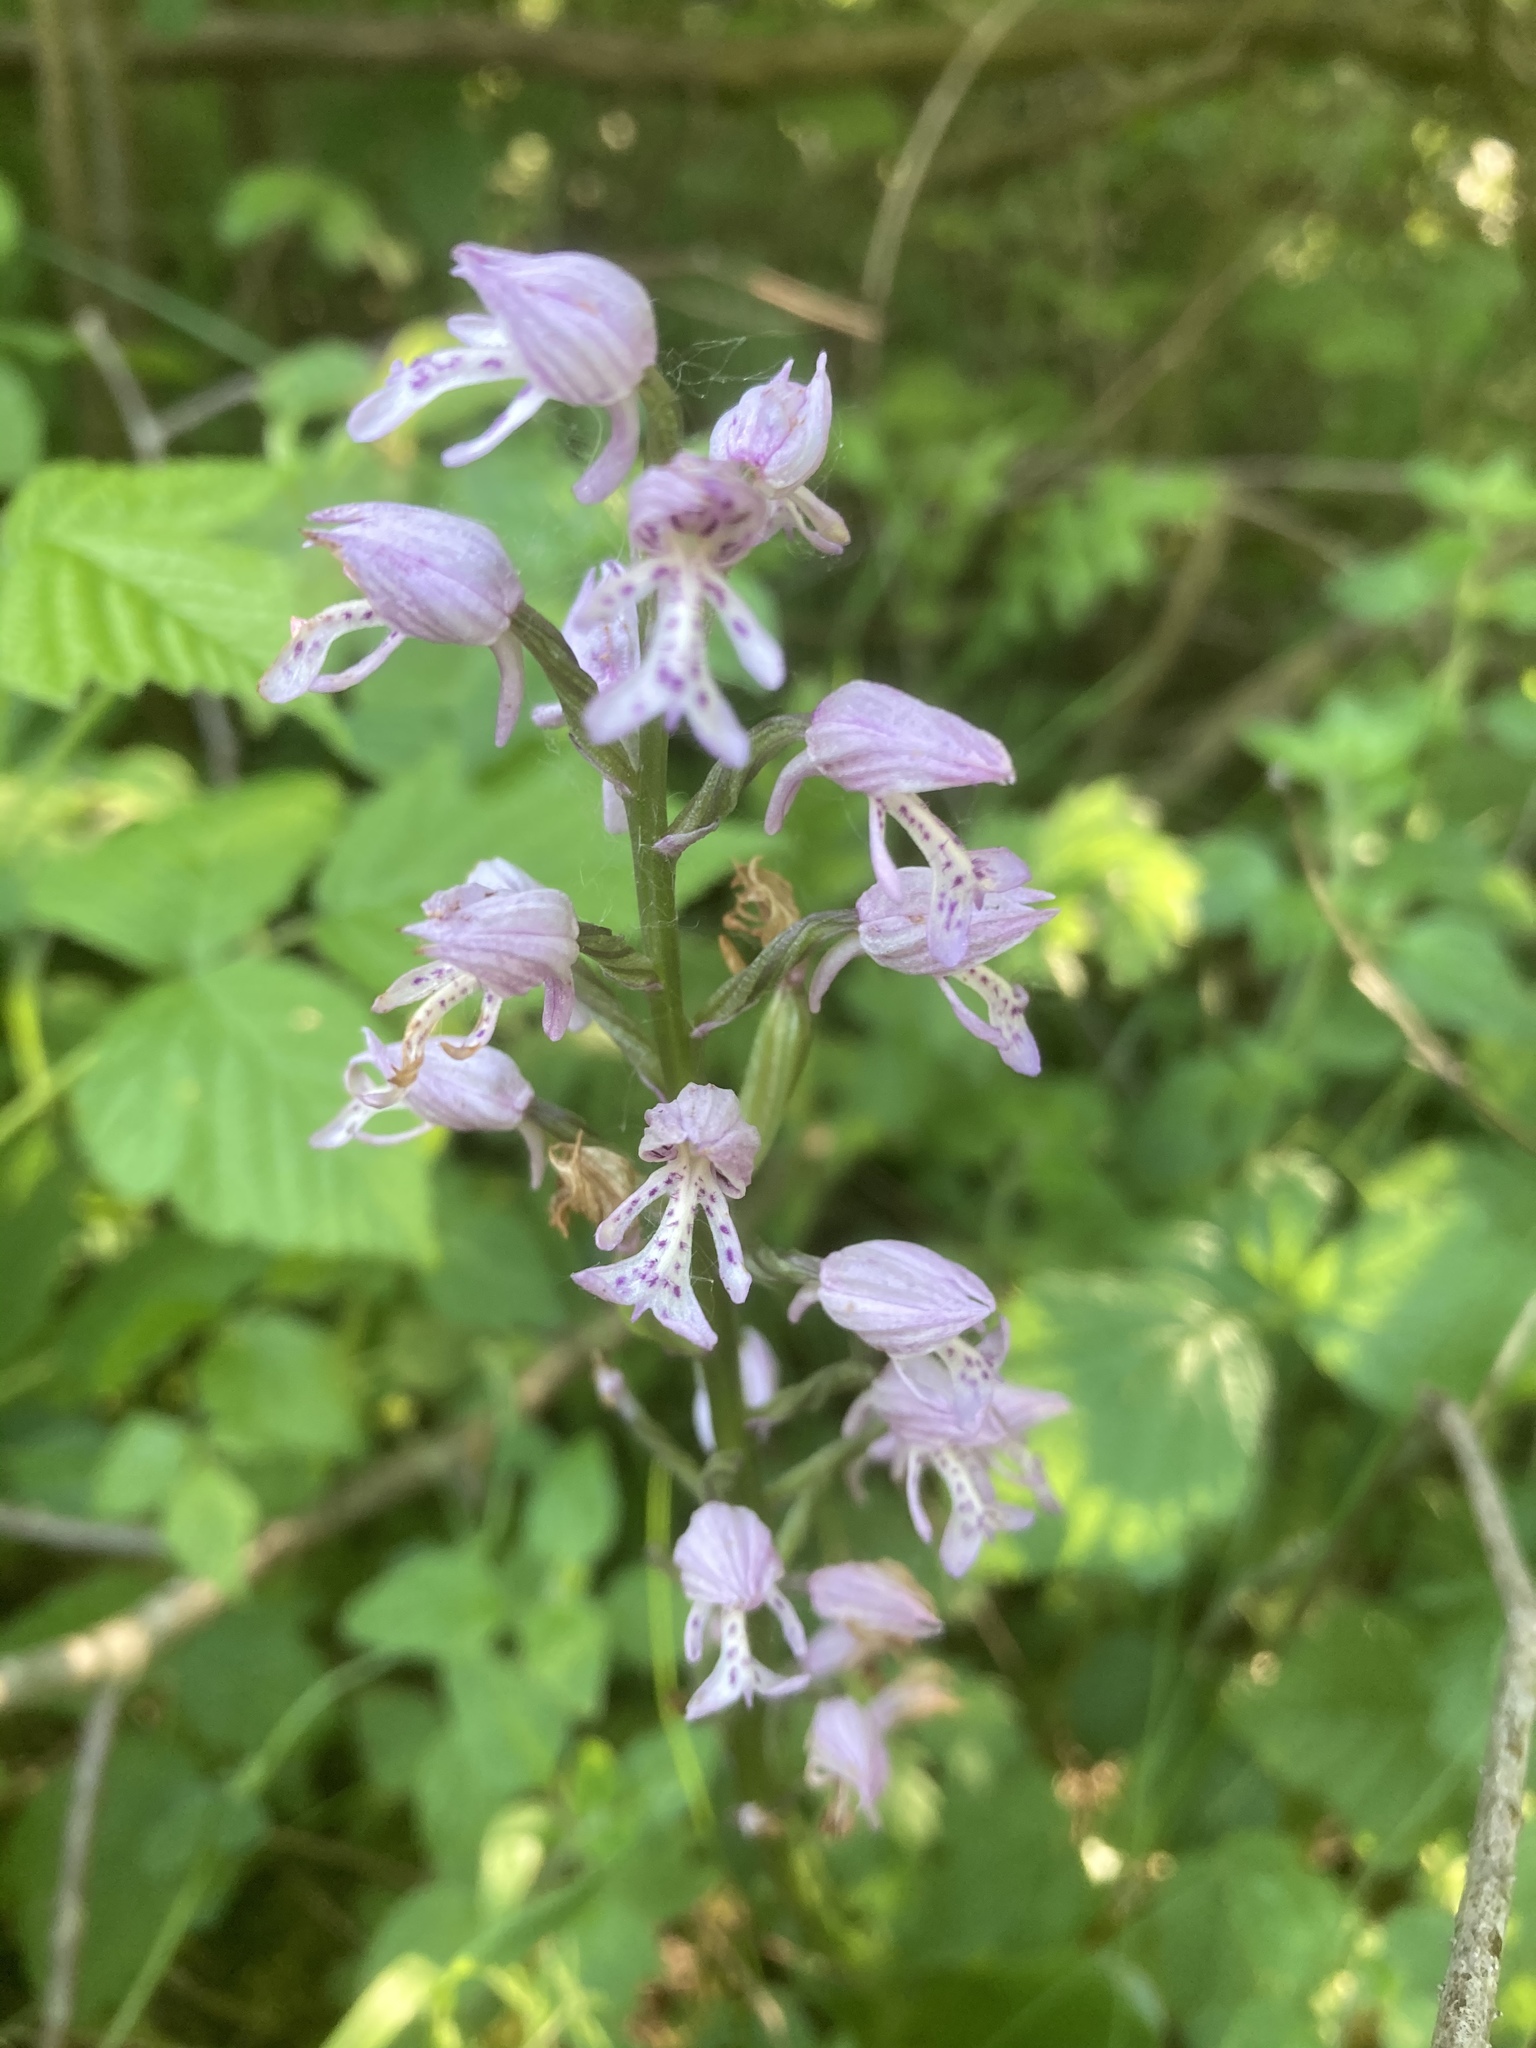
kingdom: Plantae
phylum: Tracheophyta
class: Liliopsida
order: Asparagales
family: Orchidaceae
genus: Orchis
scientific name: Orchis militaris
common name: Military orchid
